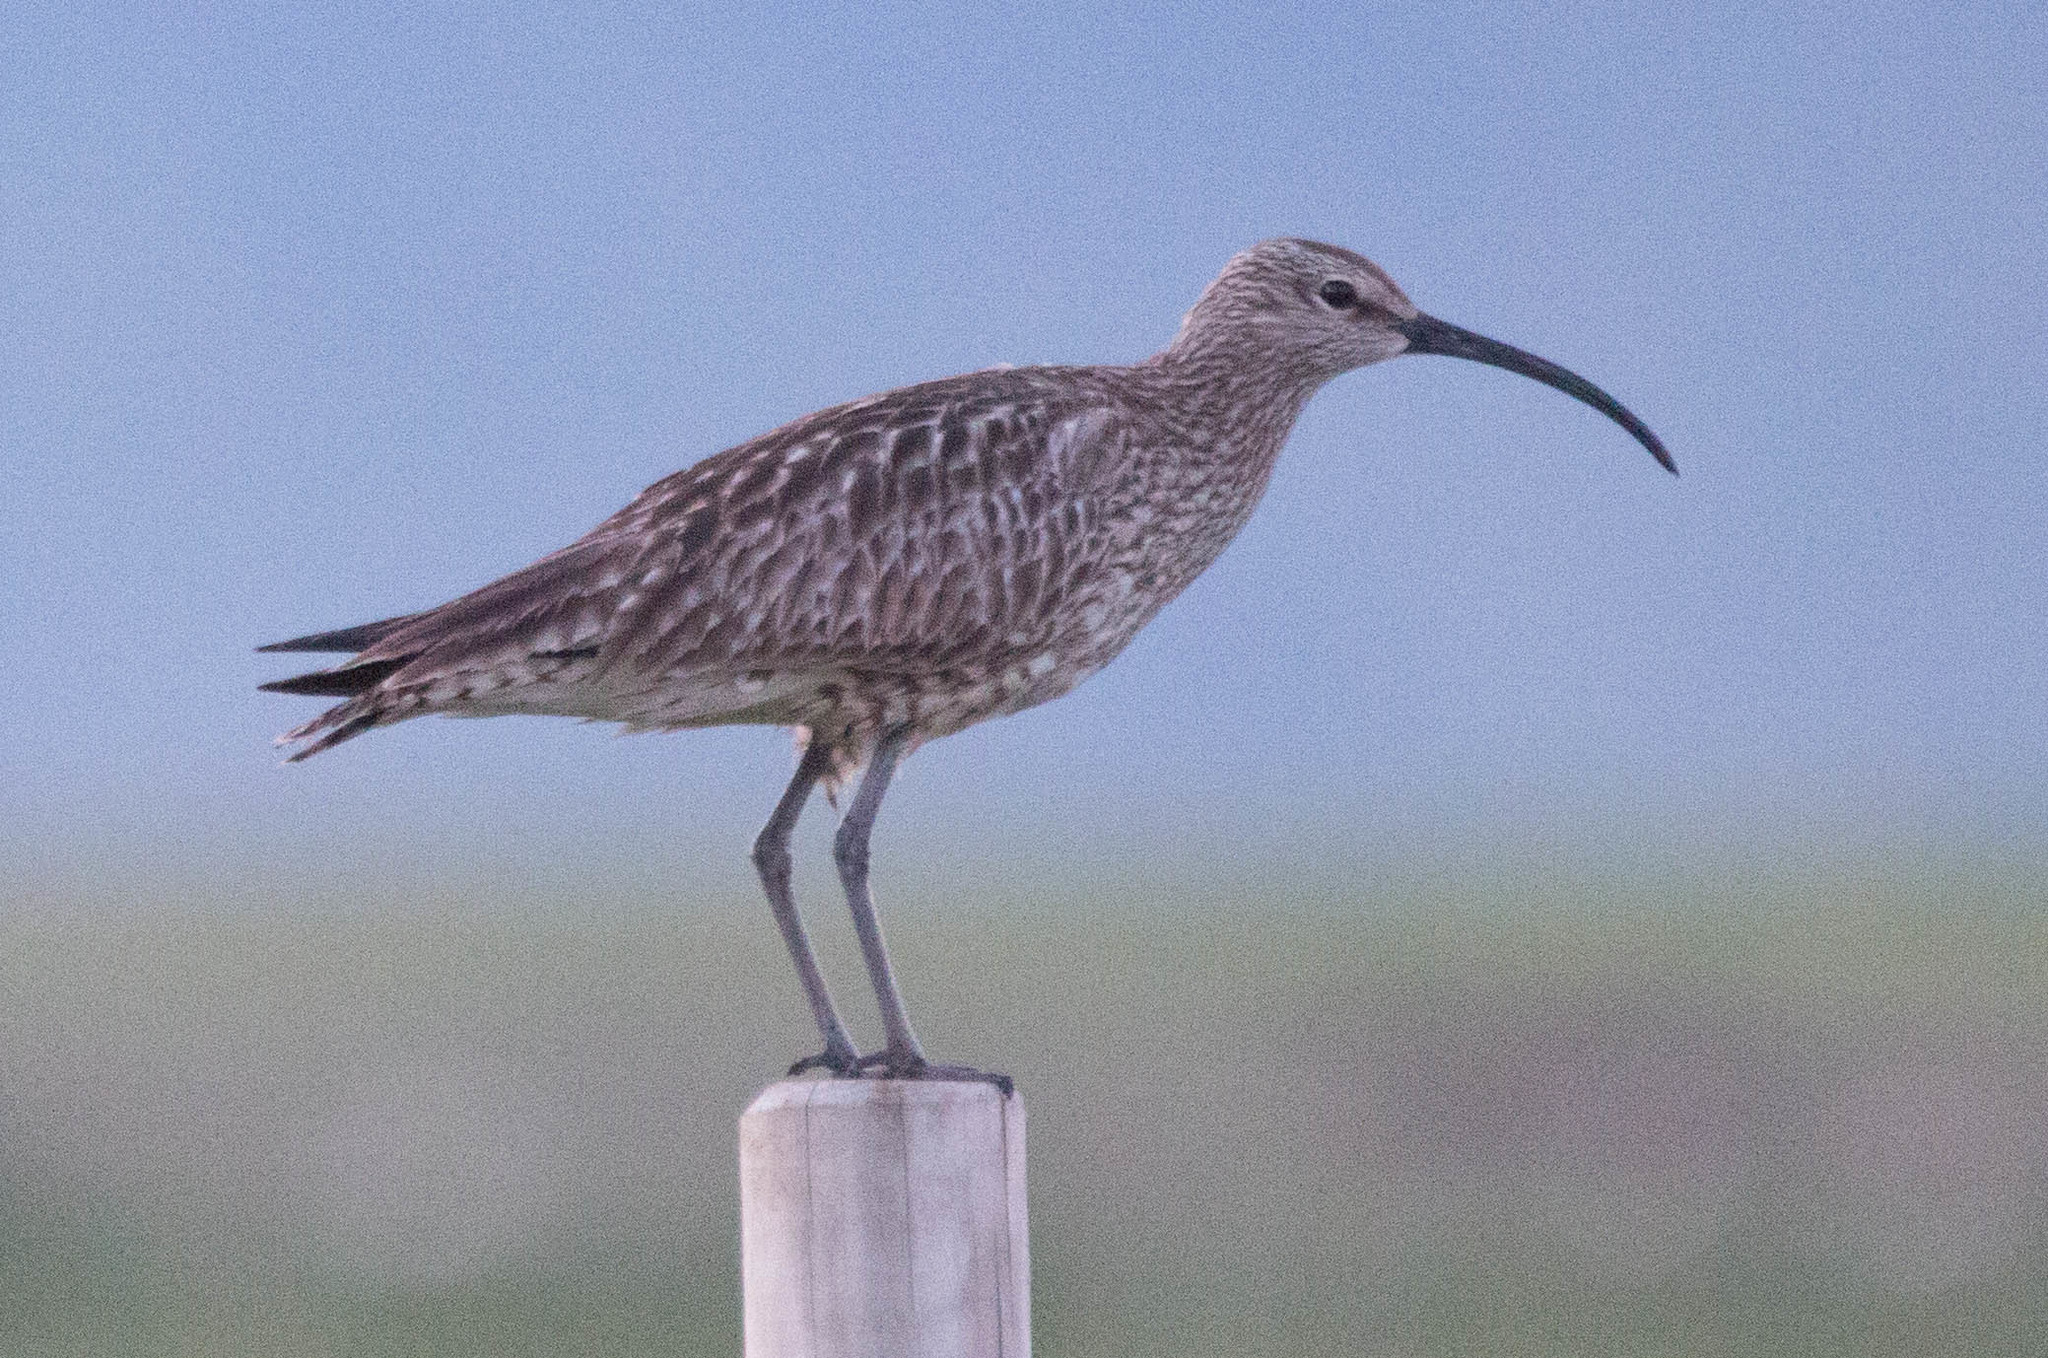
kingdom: Animalia
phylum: Chordata
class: Aves
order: Charadriiformes
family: Scolopacidae
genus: Numenius
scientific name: Numenius phaeopus
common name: Whimbrel
